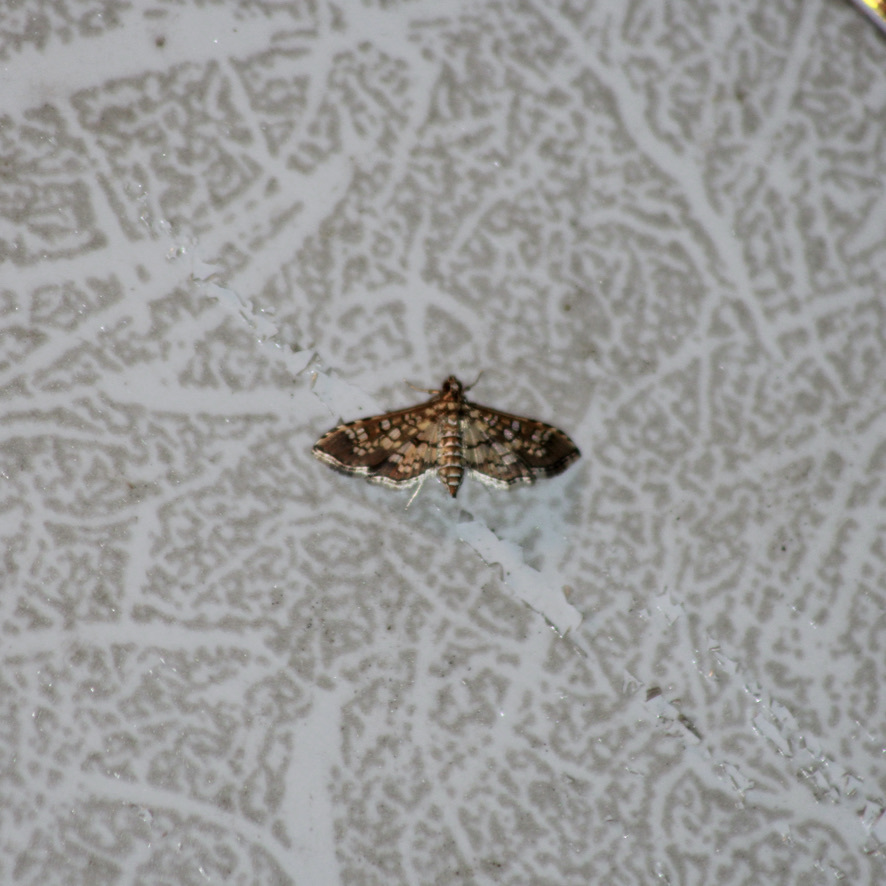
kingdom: Animalia
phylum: Arthropoda
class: Insecta
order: Lepidoptera
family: Crambidae
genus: Samea
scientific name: Samea ecclesialis
